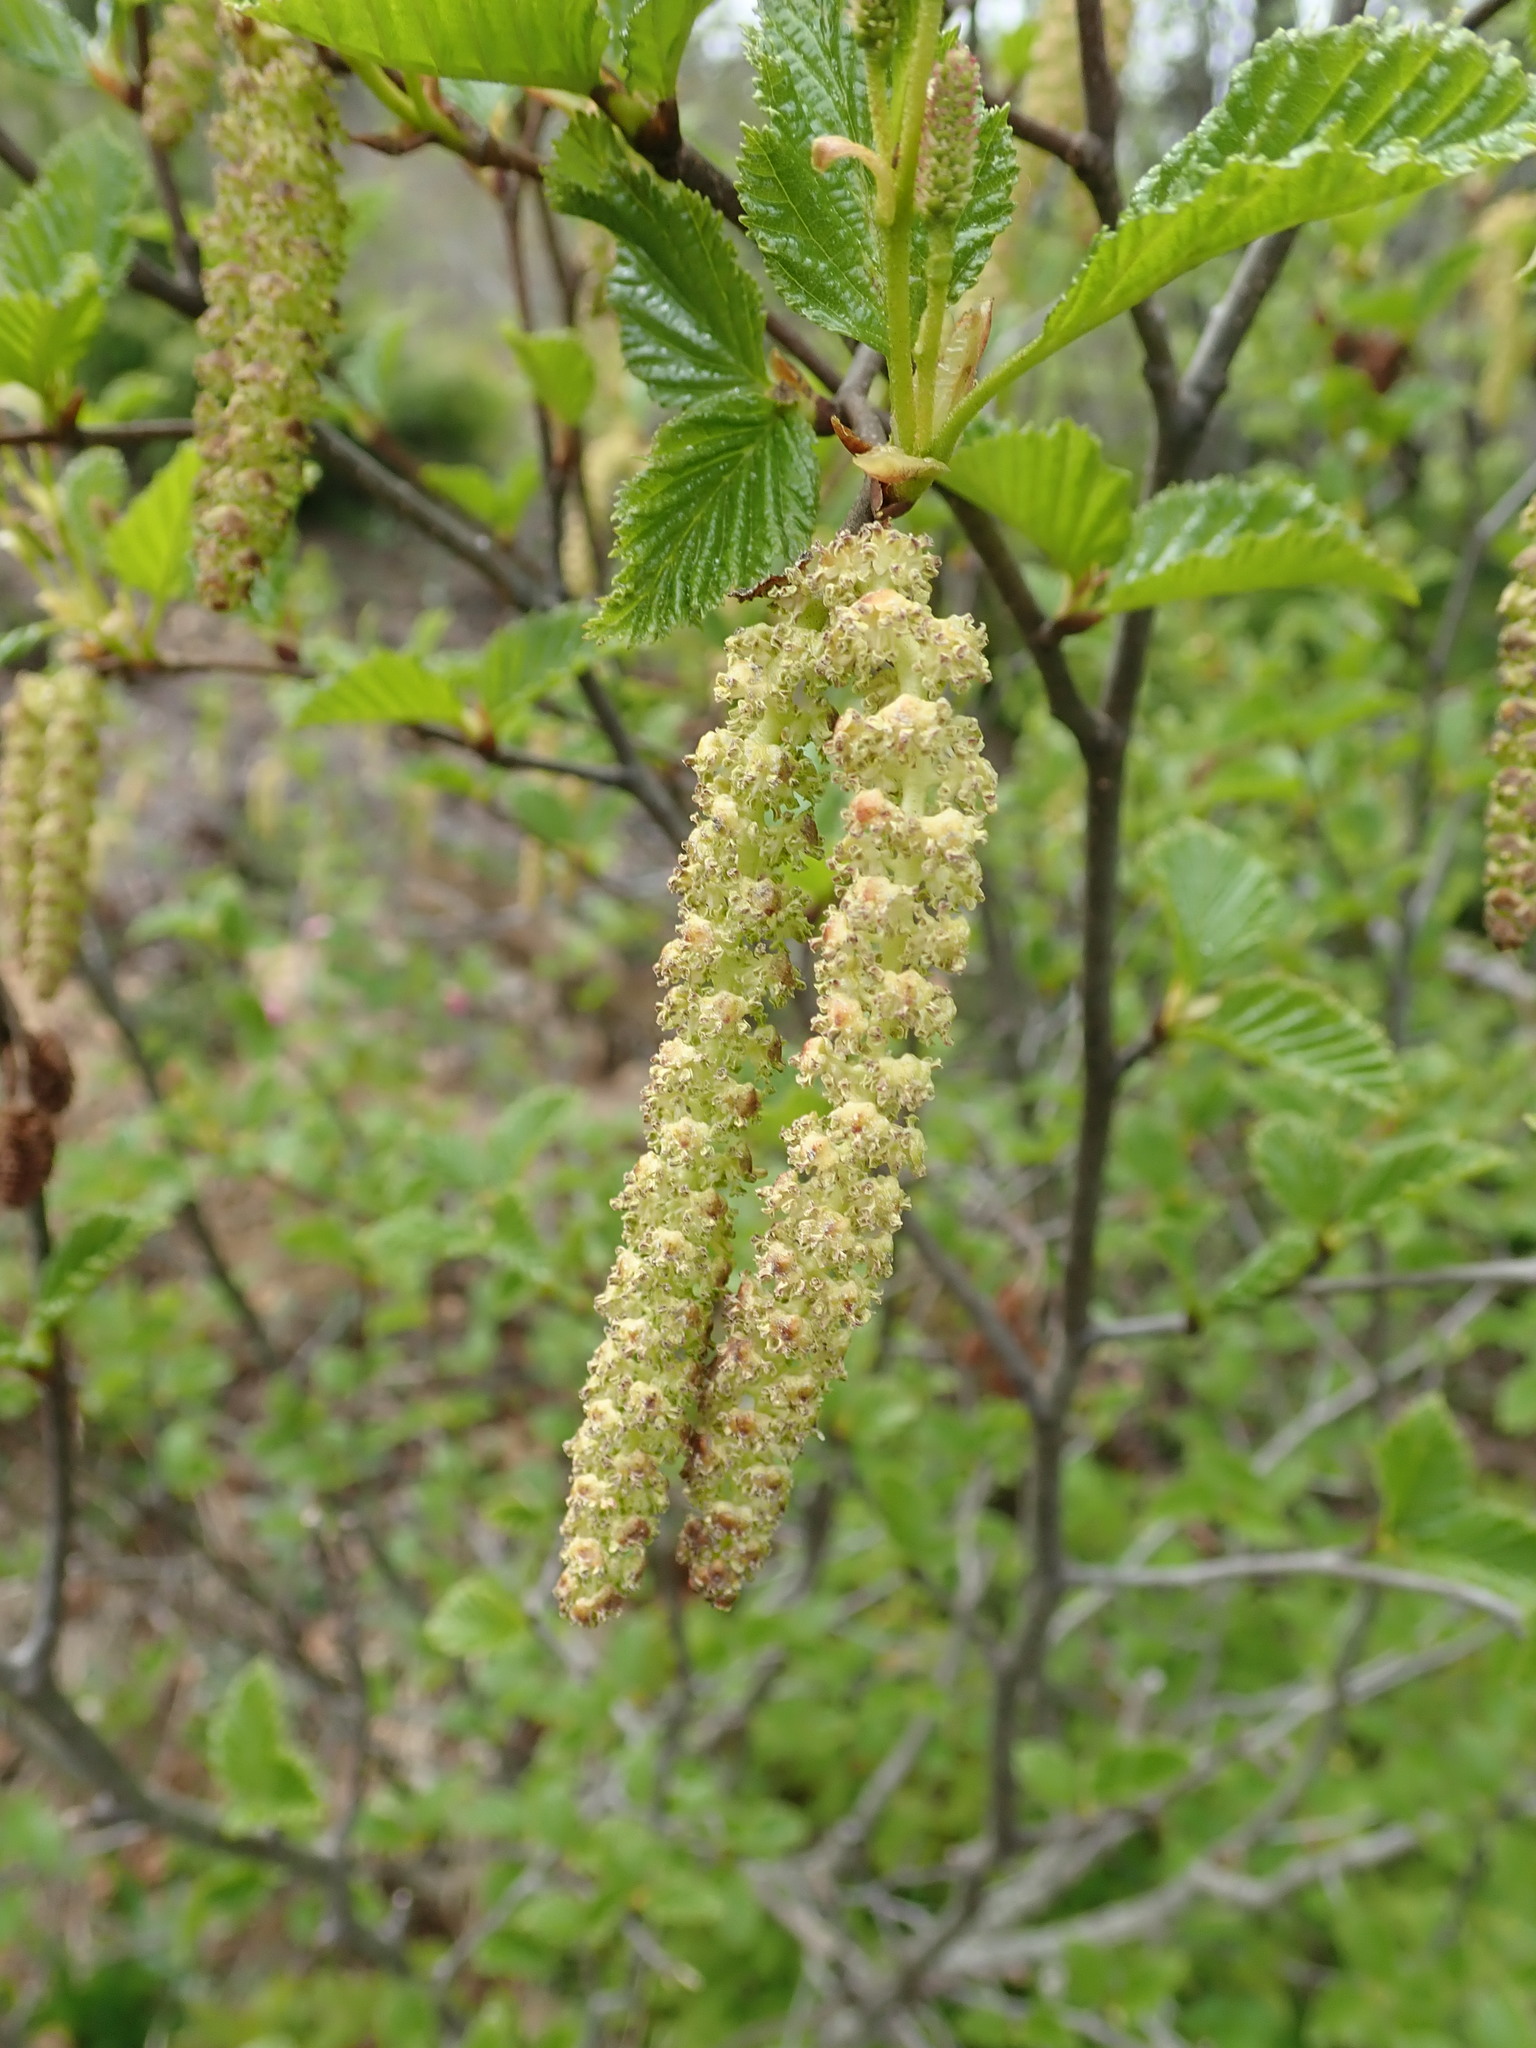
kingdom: Plantae
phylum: Tracheophyta
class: Magnoliopsida
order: Fagales
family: Betulaceae
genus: Alnus
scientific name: Alnus alnobetula
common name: Green alder
